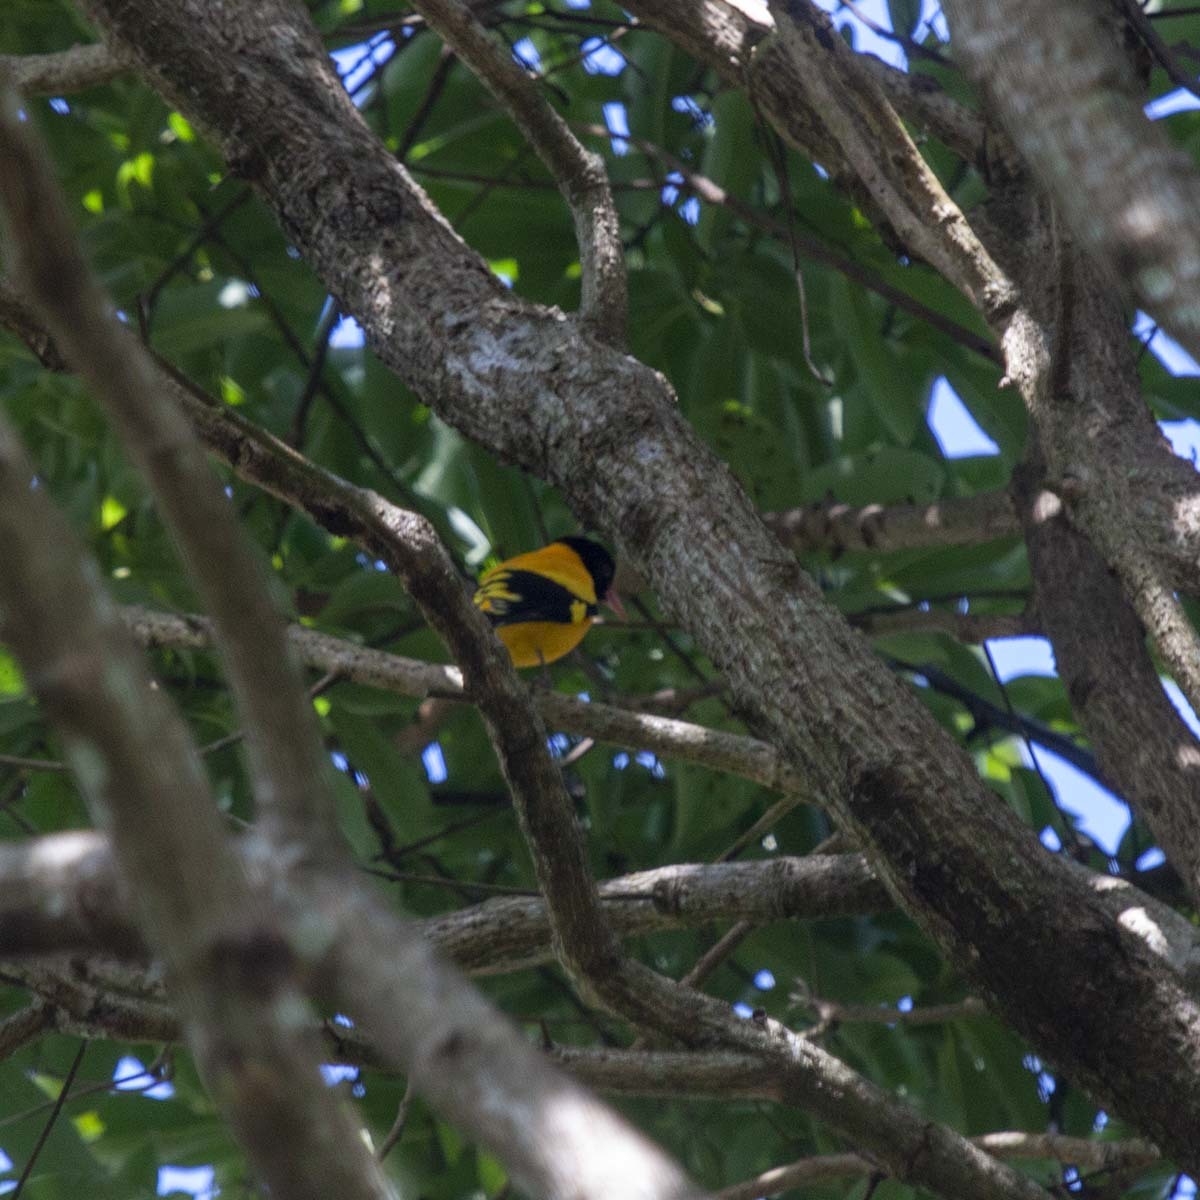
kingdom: Animalia
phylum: Chordata
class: Aves
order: Passeriformes
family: Oriolidae
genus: Oriolus
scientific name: Oriolus xanthornus
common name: Black-hooded oriole
